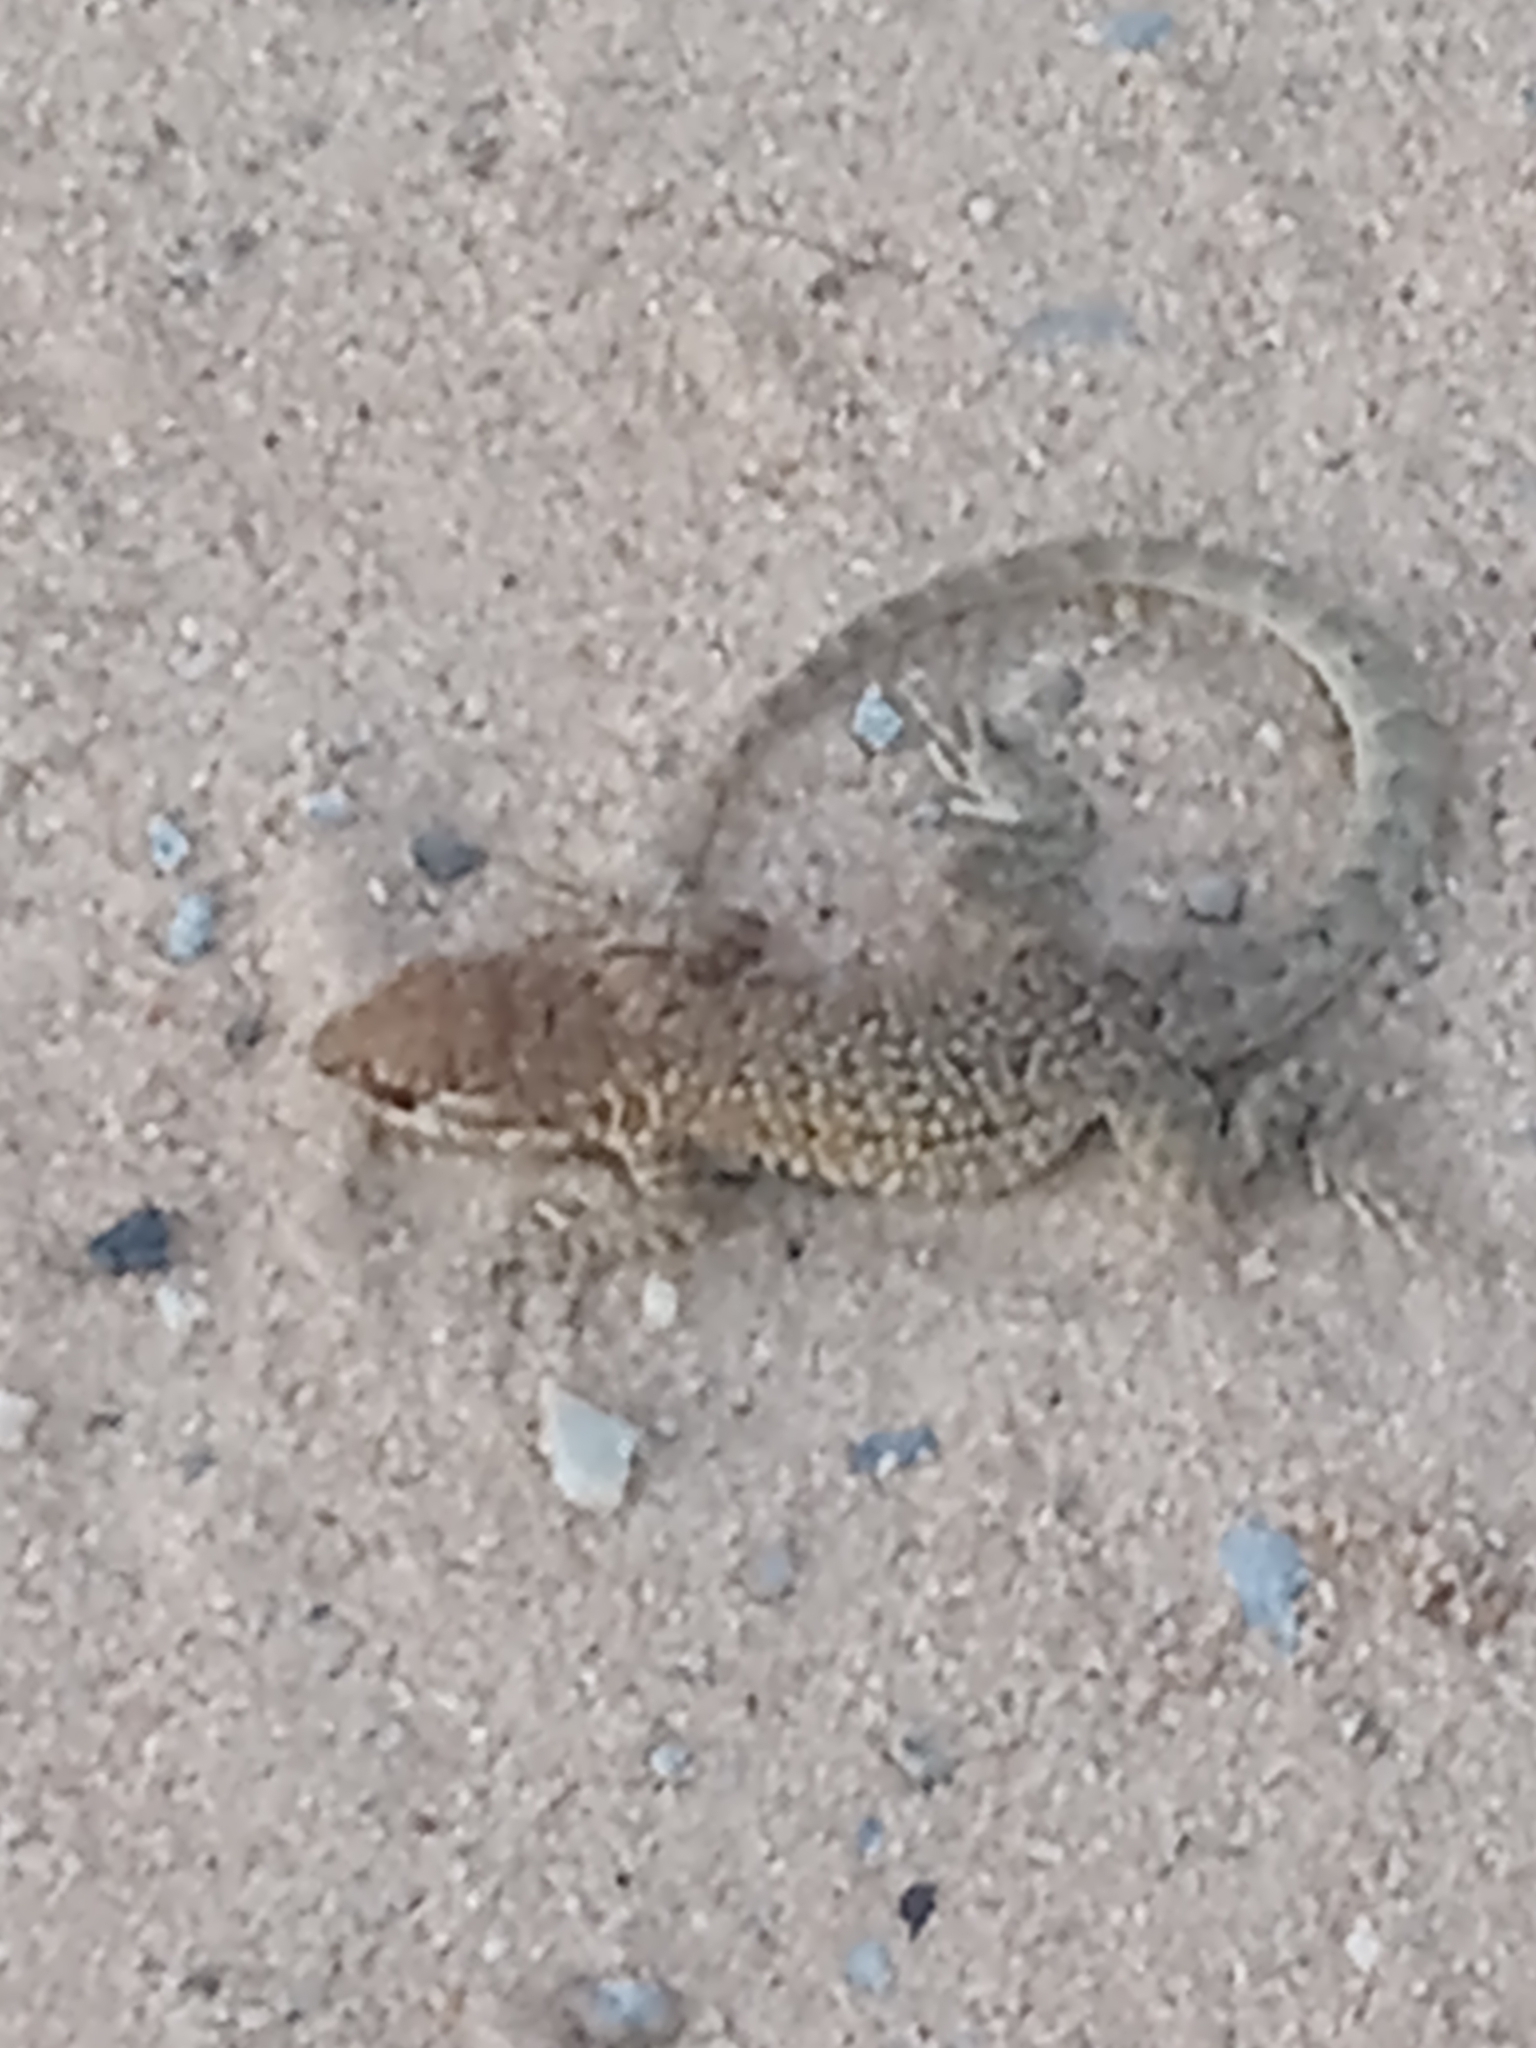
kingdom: Animalia
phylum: Chordata
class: Squamata
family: Phrynosomatidae
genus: Uta
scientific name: Uta stansburiana
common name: Side-blotched lizard
